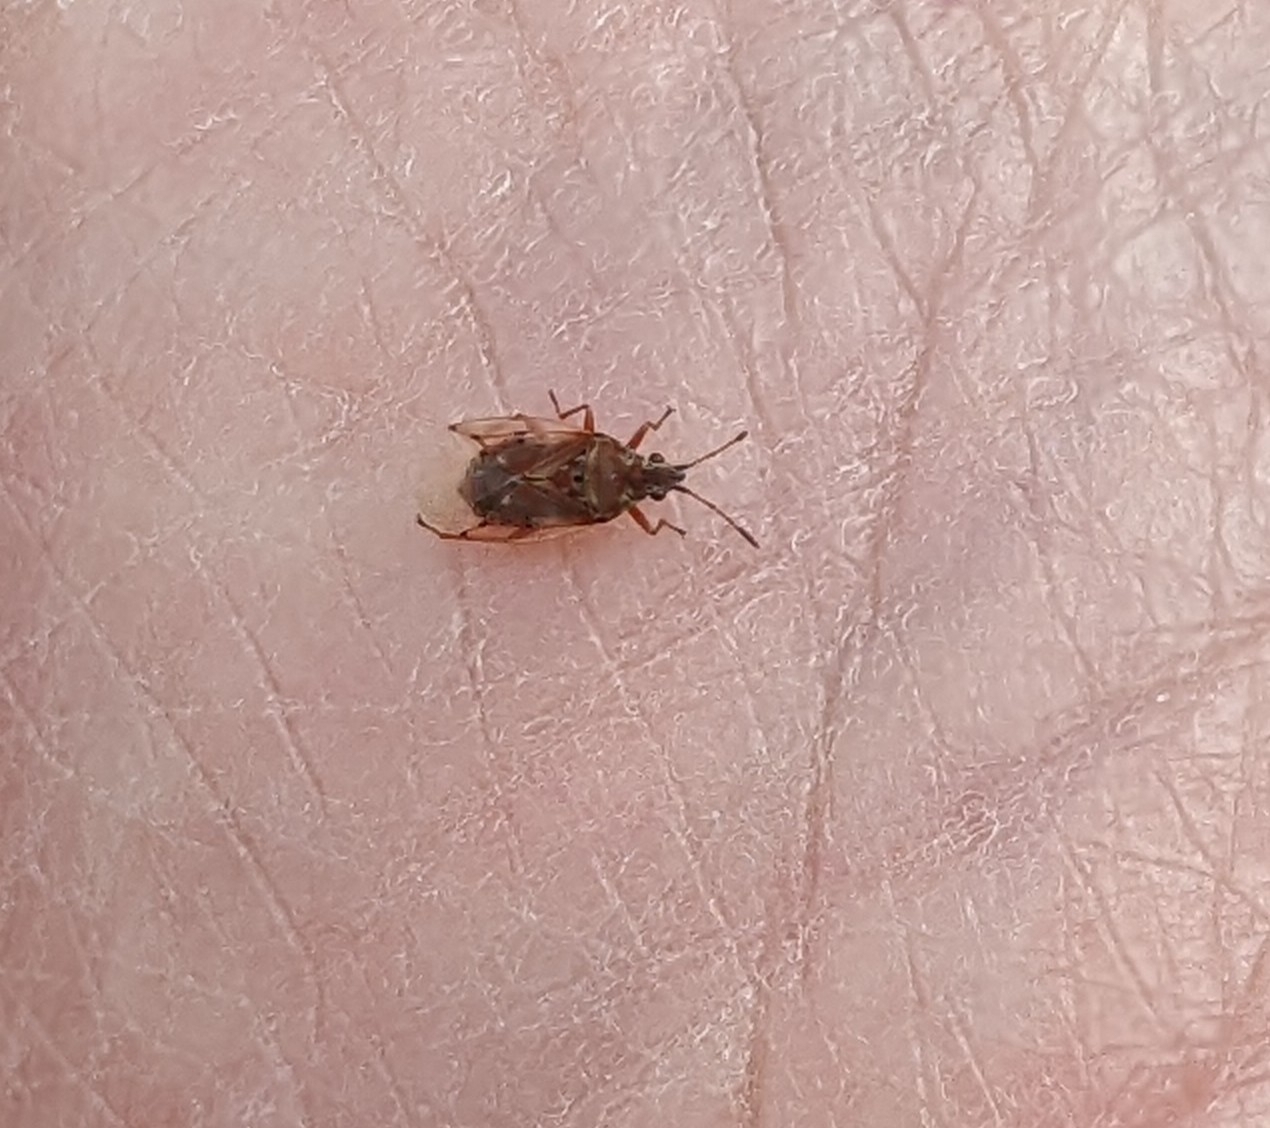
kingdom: Animalia
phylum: Arthropoda
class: Insecta
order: Hemiptera
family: Lygaeidae
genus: Kleidocerys
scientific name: Kleidocerys resedae
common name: Birch catkin bug
